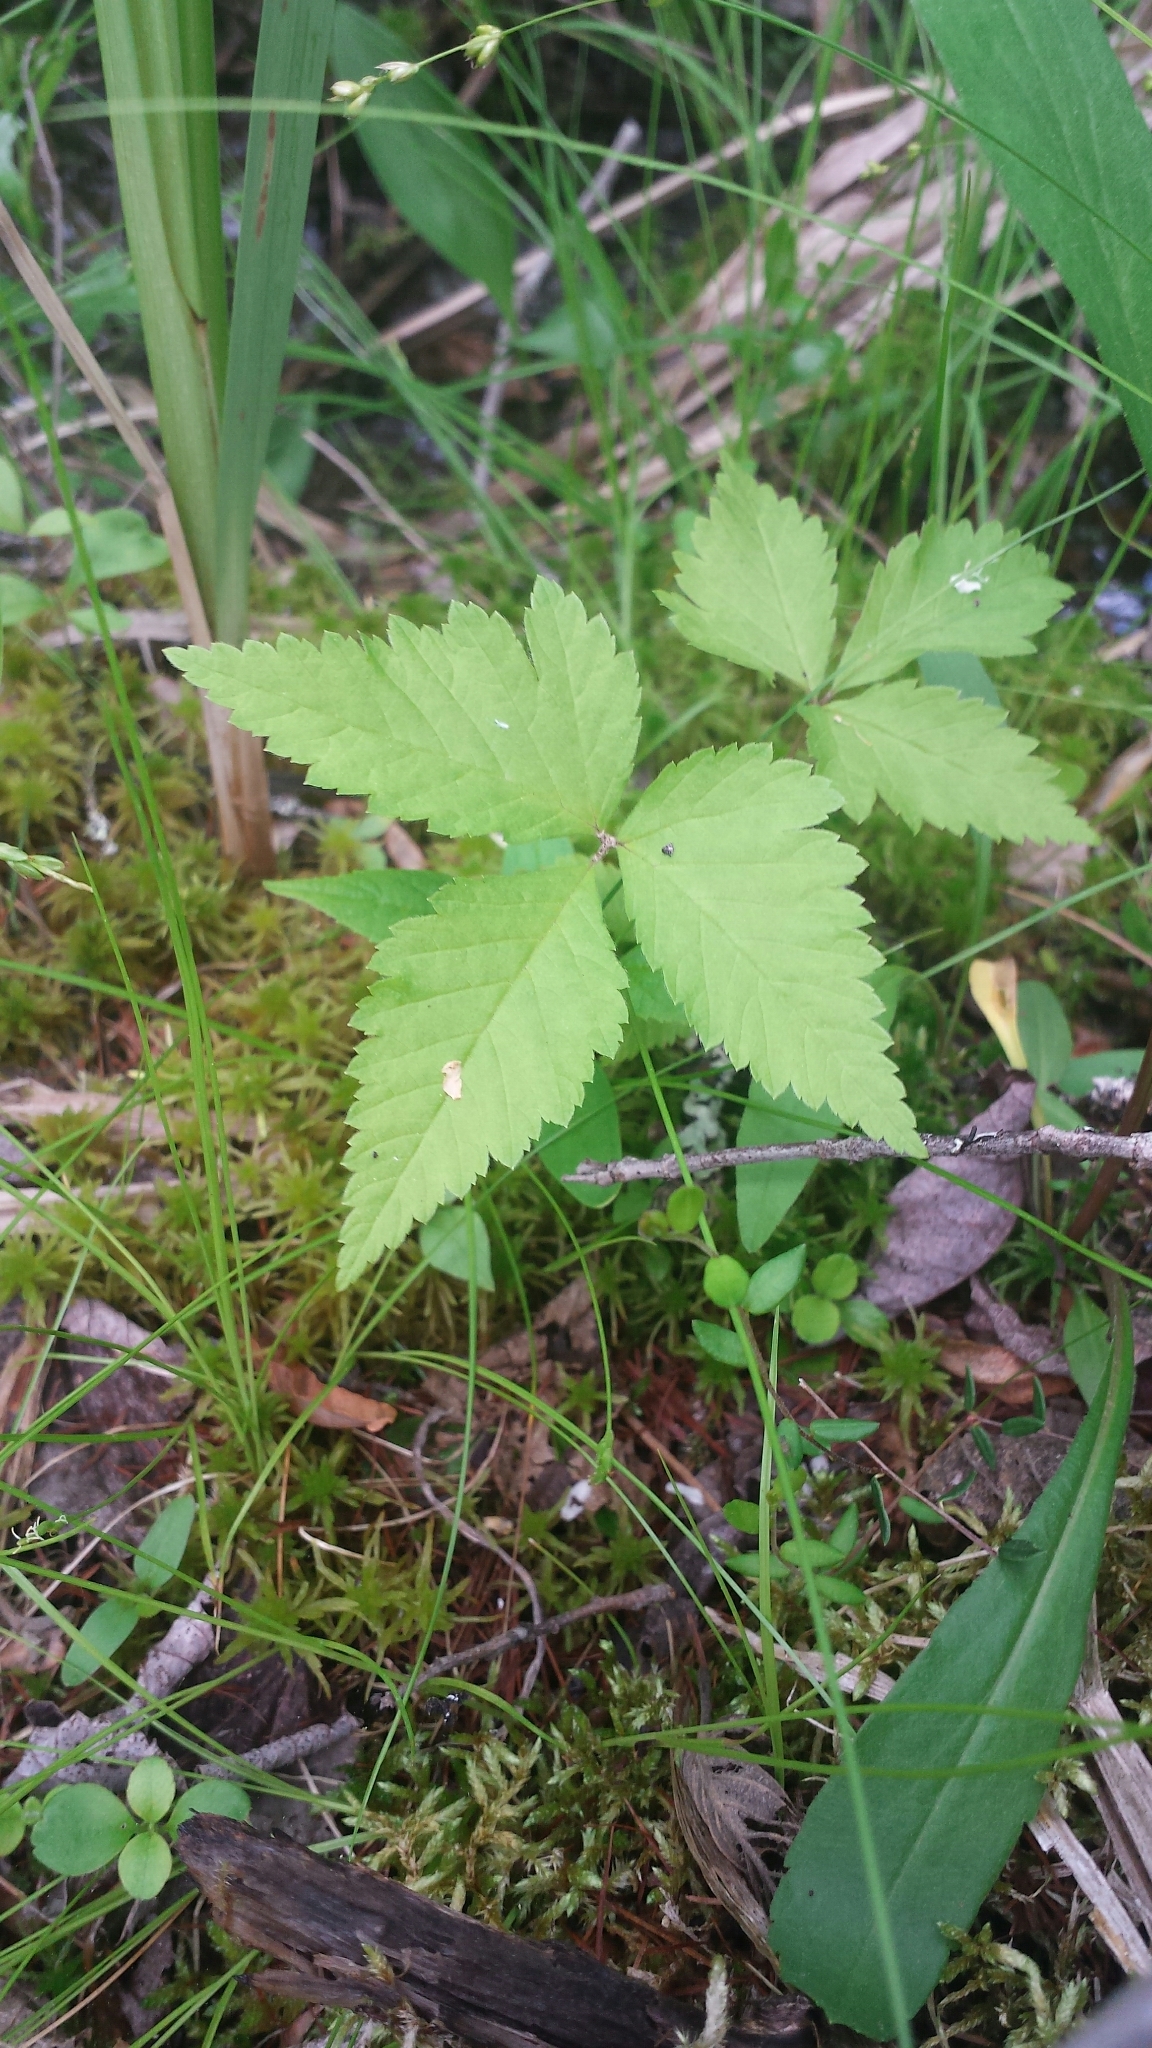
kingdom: Plantae
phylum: Tracheophyta
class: Magnoliopsida
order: Rosales
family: Rosaceae
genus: Rubus
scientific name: Rubus pubescens
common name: Dwarf raspberry
